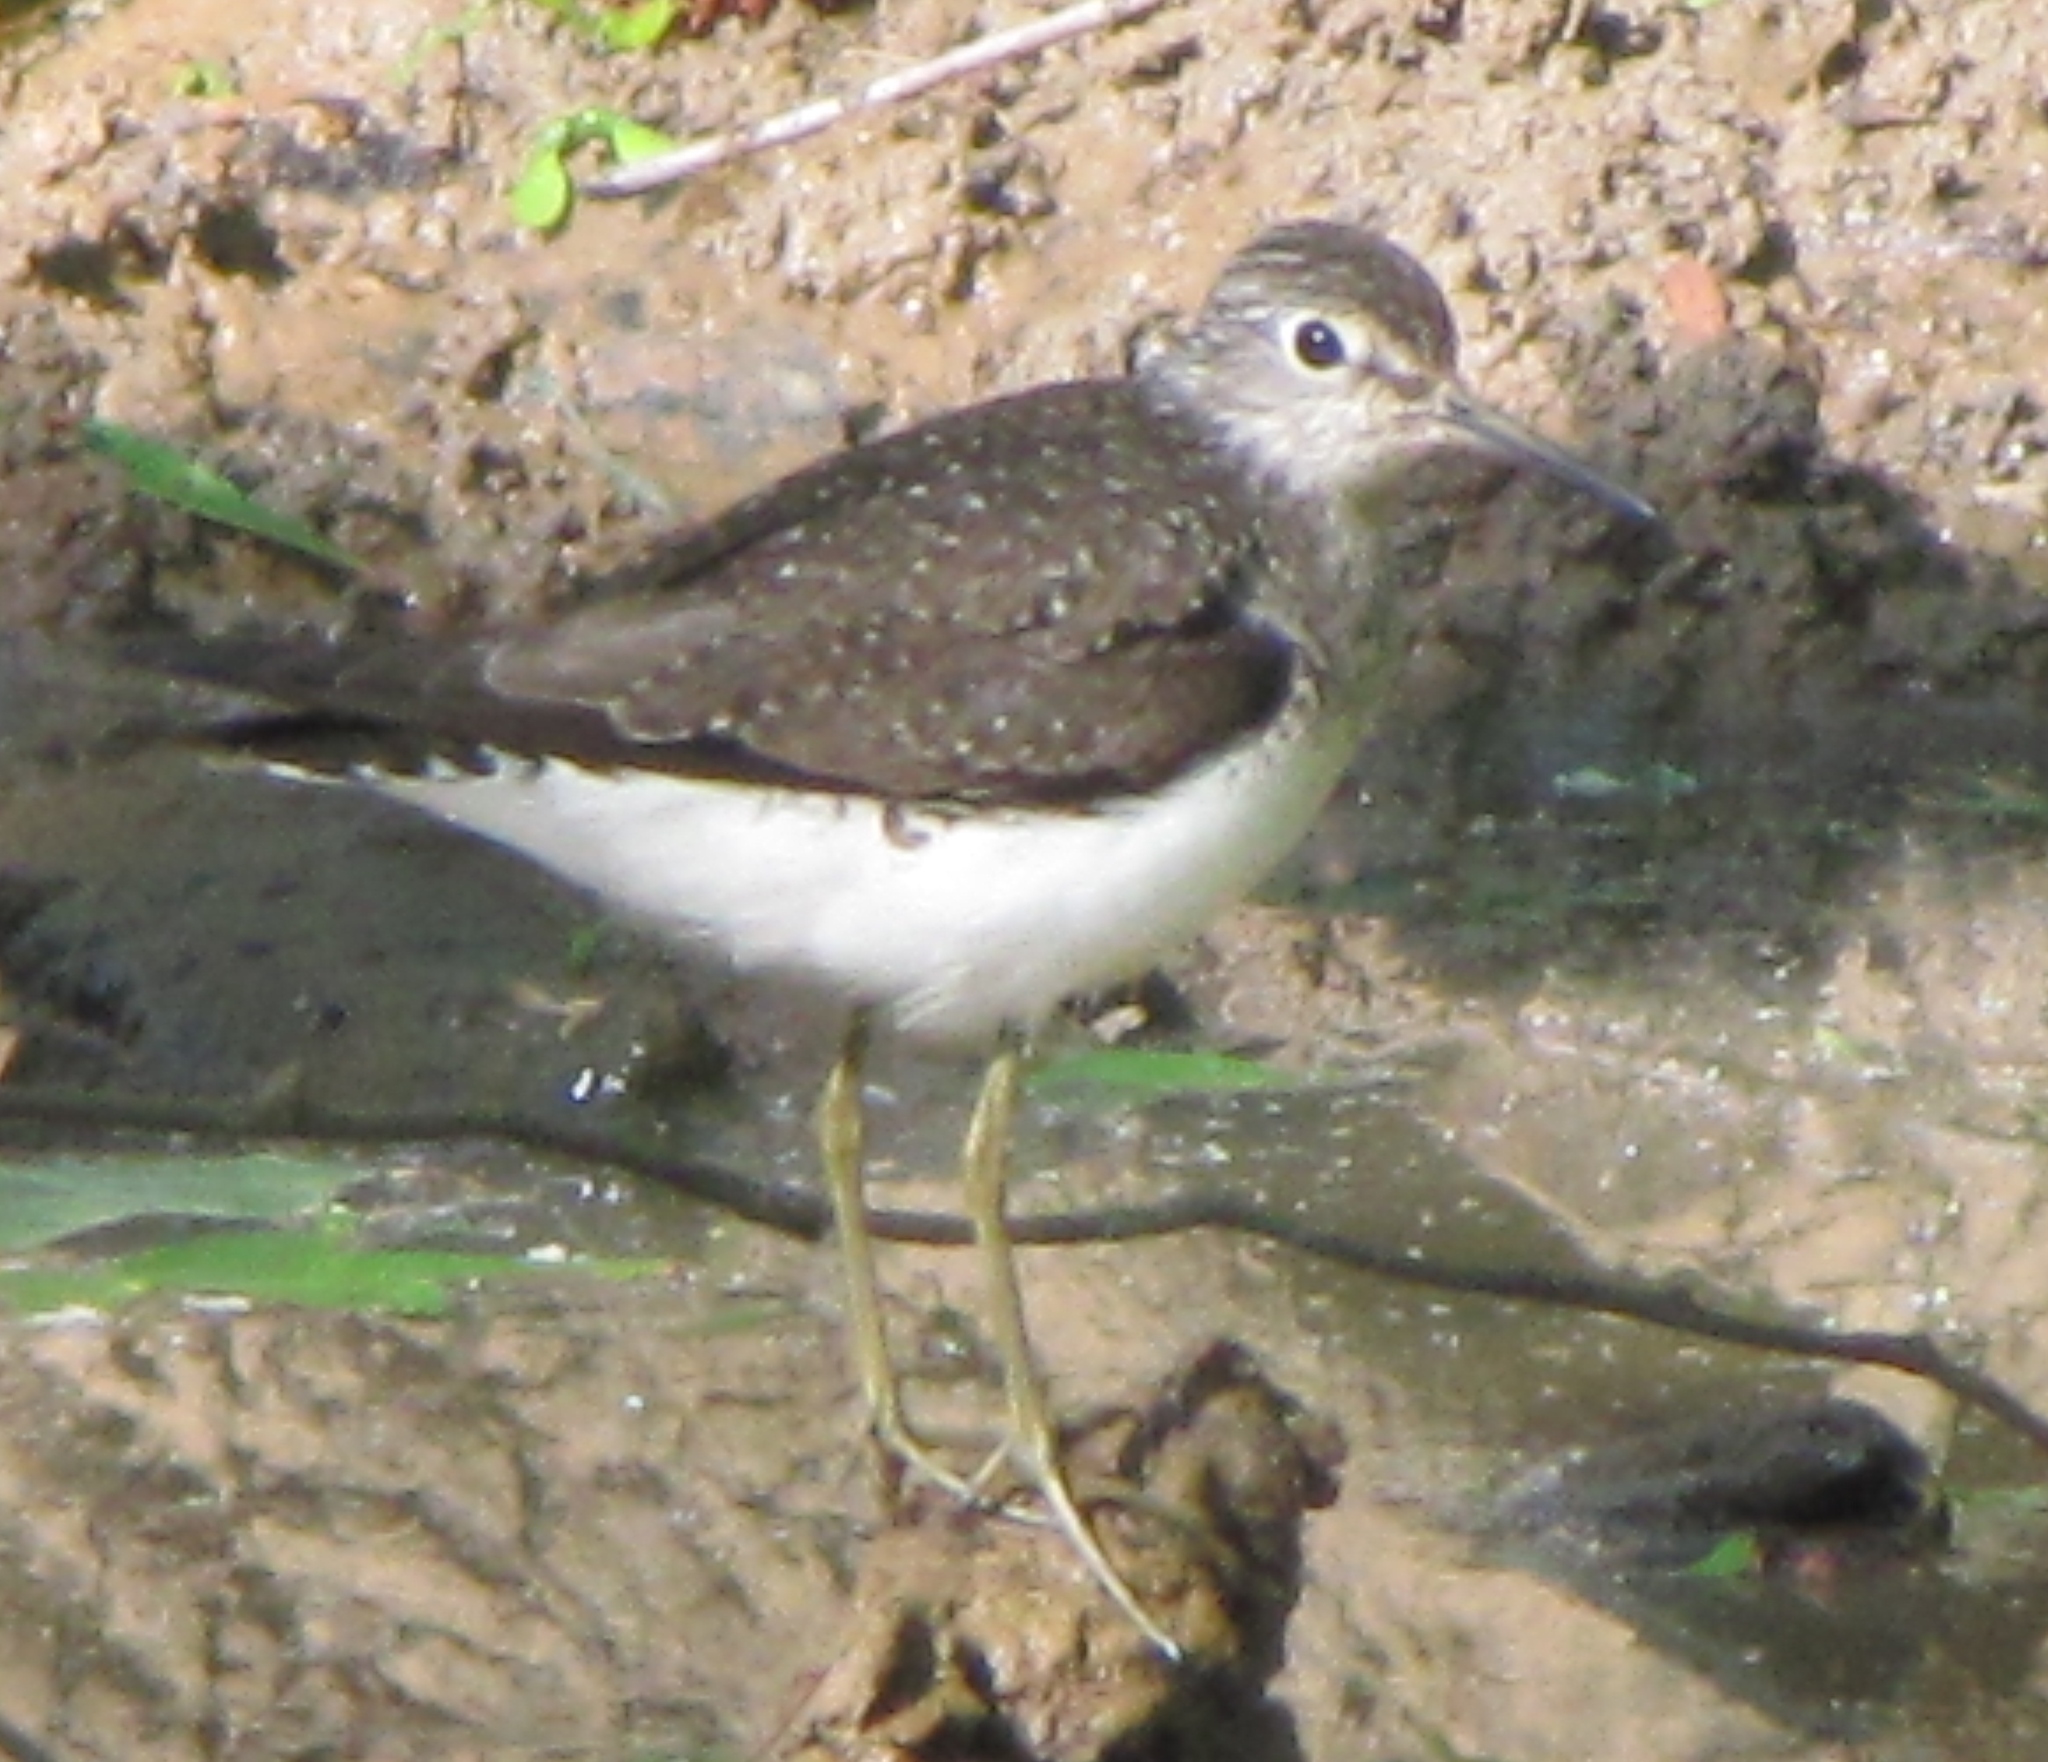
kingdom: Animalia
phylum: Chordata
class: Aves
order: Charadriiformes
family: Scolopacidae
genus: Tringa
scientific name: Tringa solitaria
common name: Solitary sandpiper
